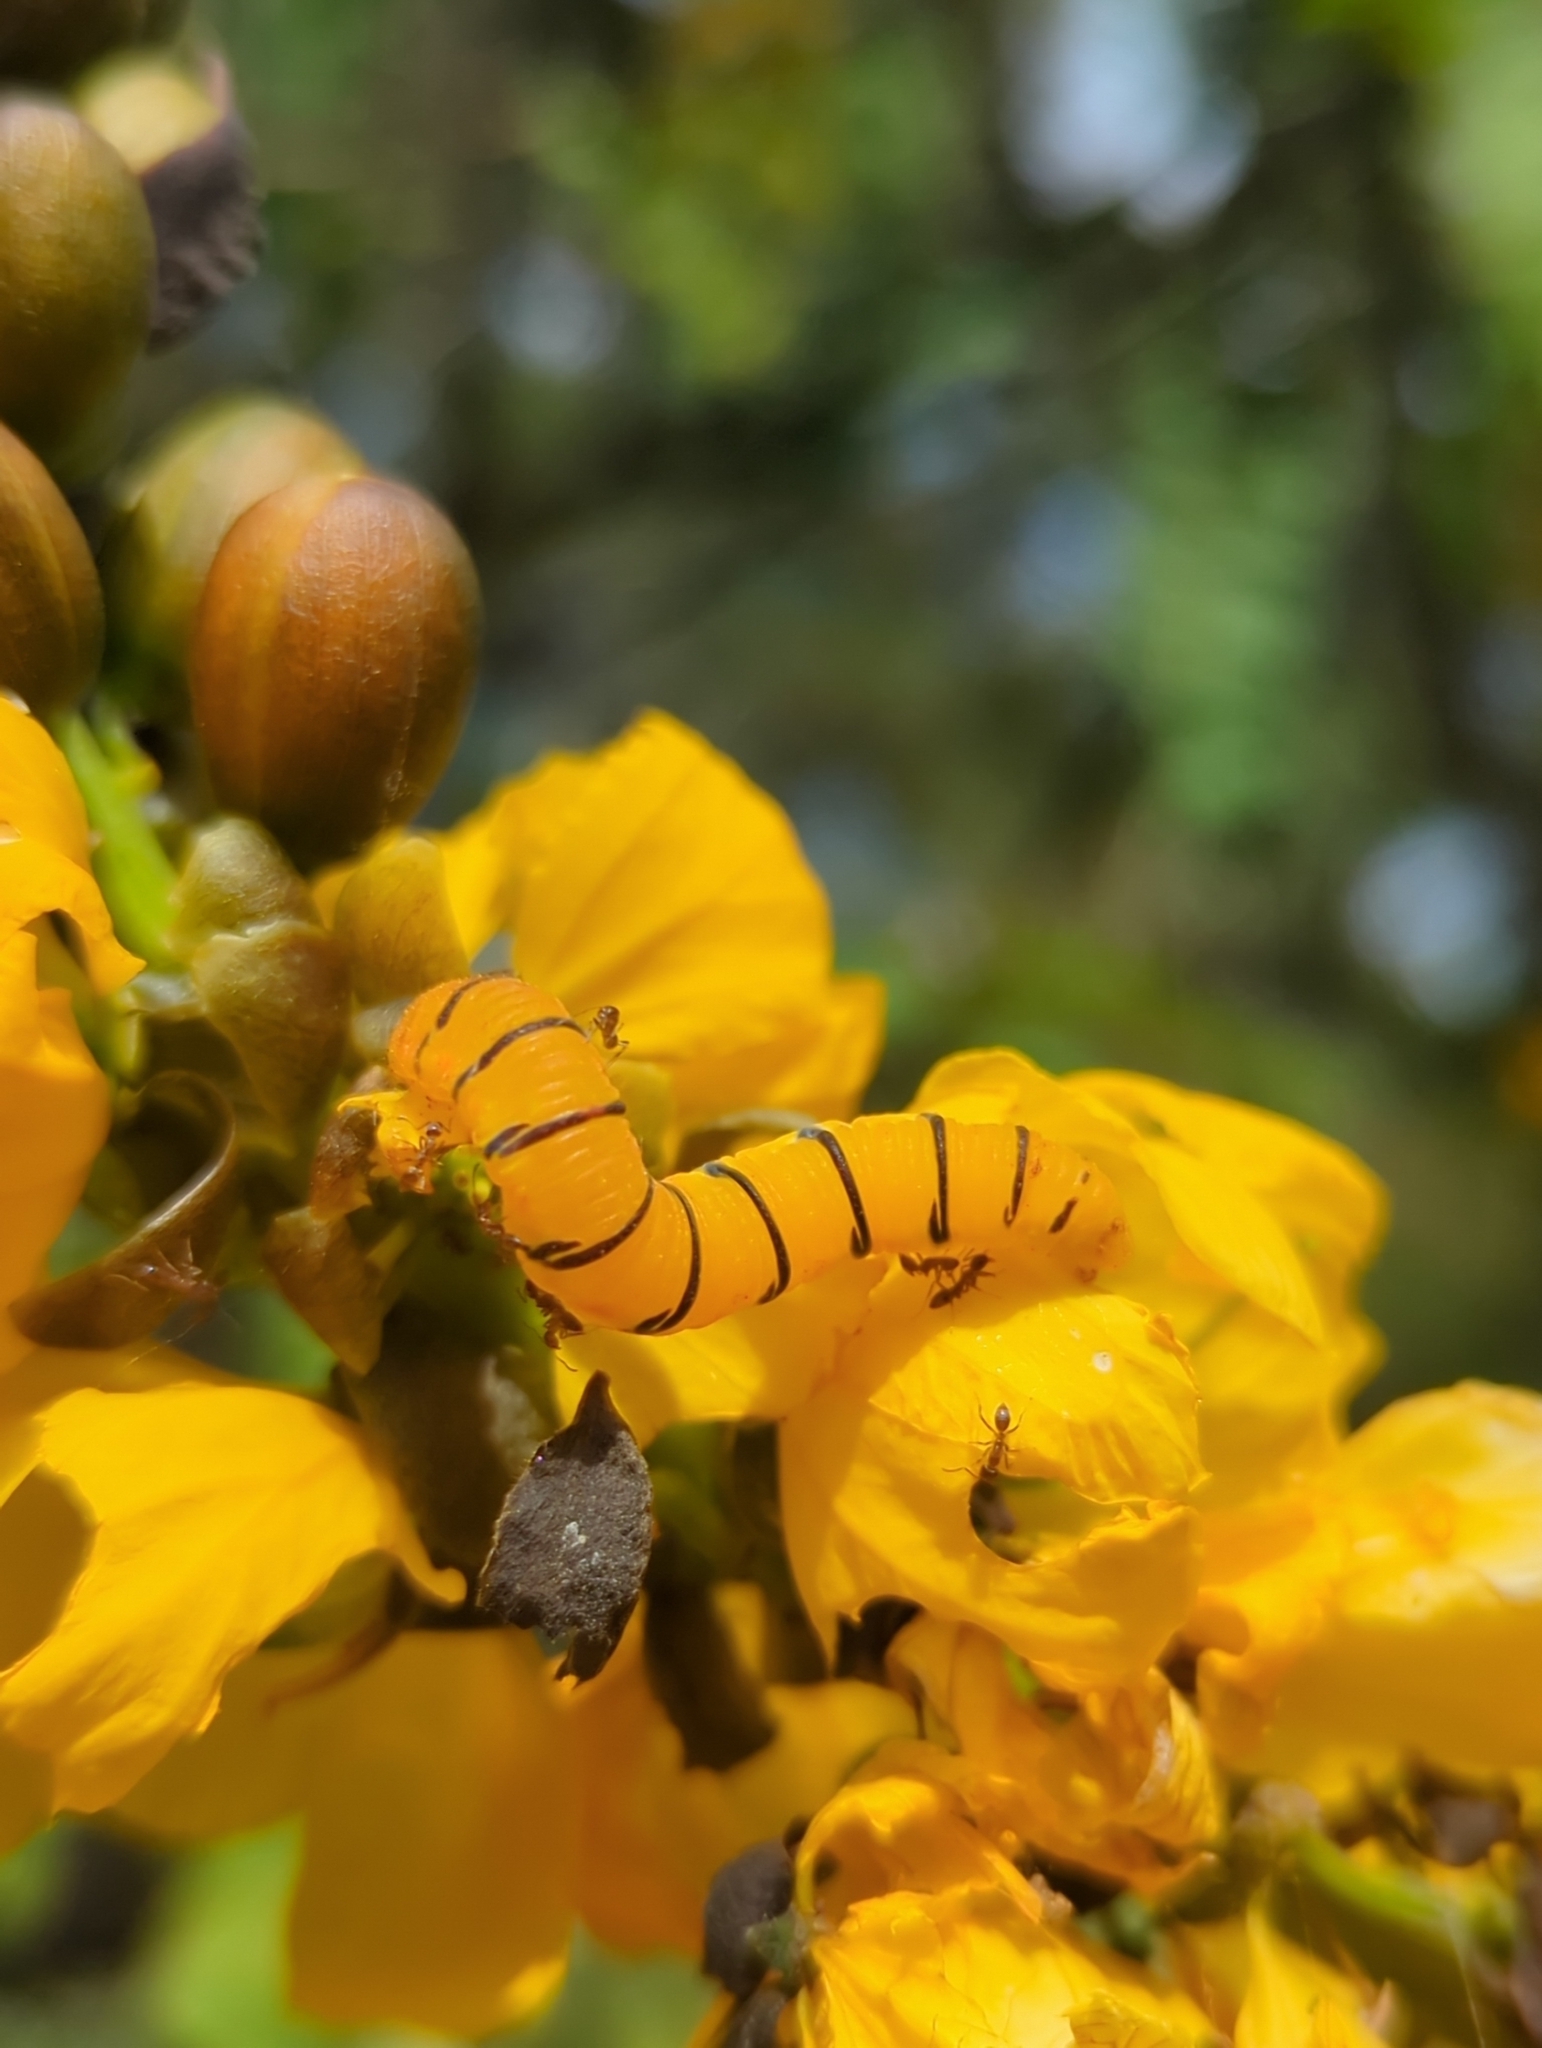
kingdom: Animalia
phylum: Arthropoda
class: Insecta
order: Lepidoptera
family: Pieridae
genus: Phoebis
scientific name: Phoebis sennae
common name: Cloudless sulphur
